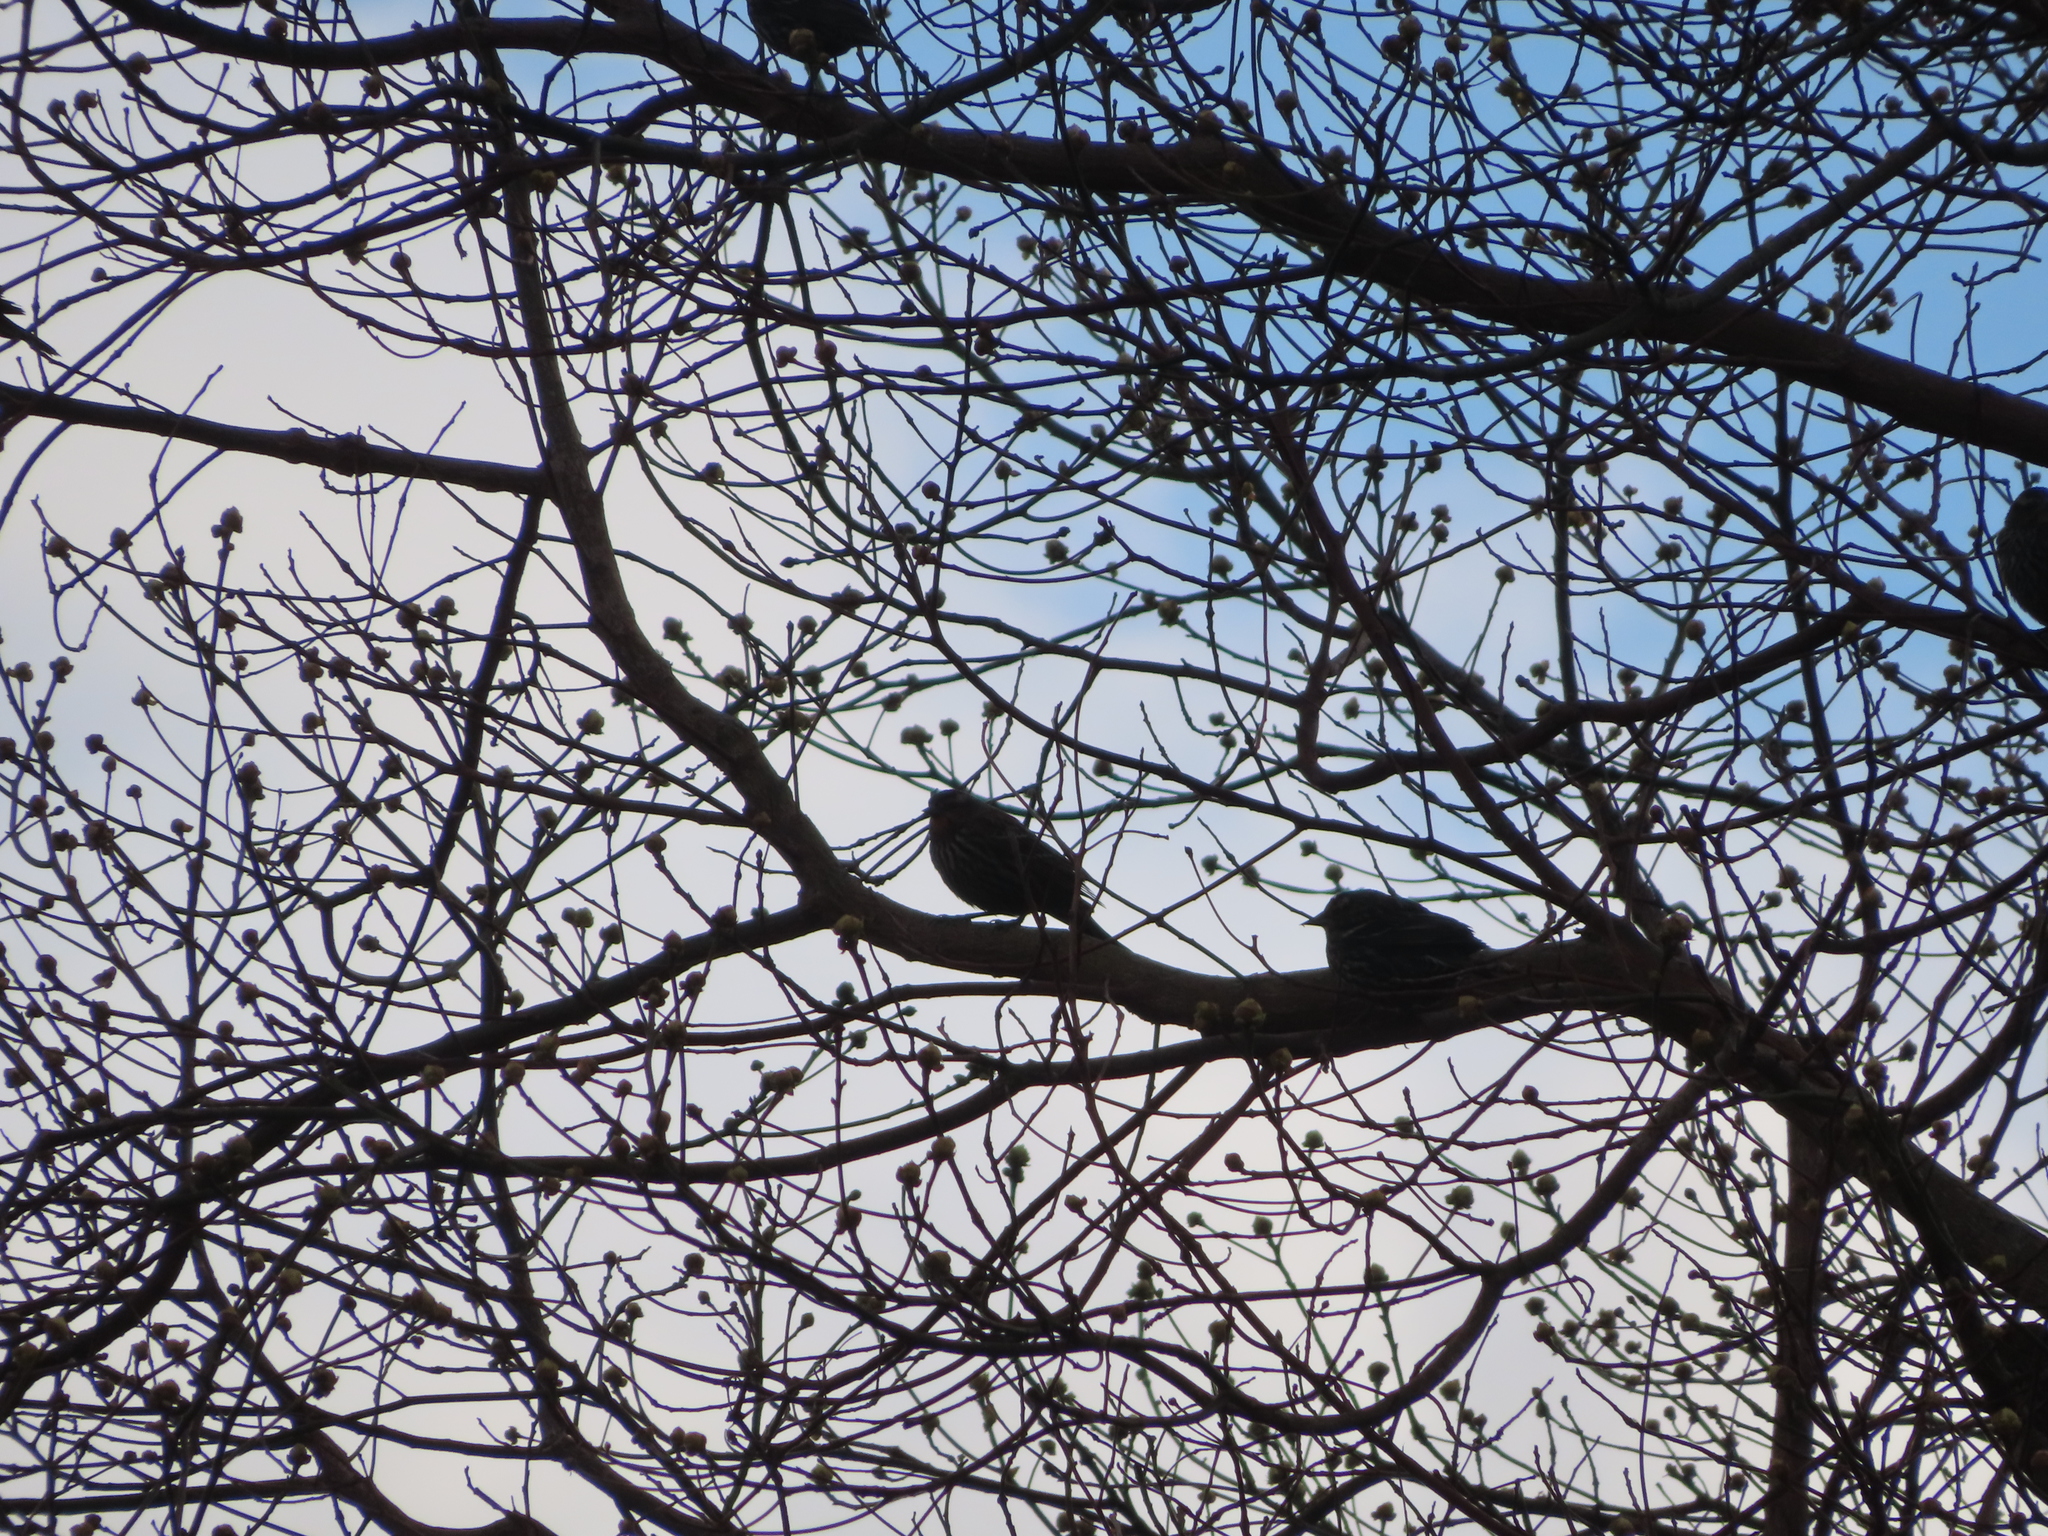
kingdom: Animalia
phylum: Chordata
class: Aves
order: Passeriformes
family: Icteridae
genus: Agelaius
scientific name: Agelaius phoeniceus
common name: Red-winged blackbird
